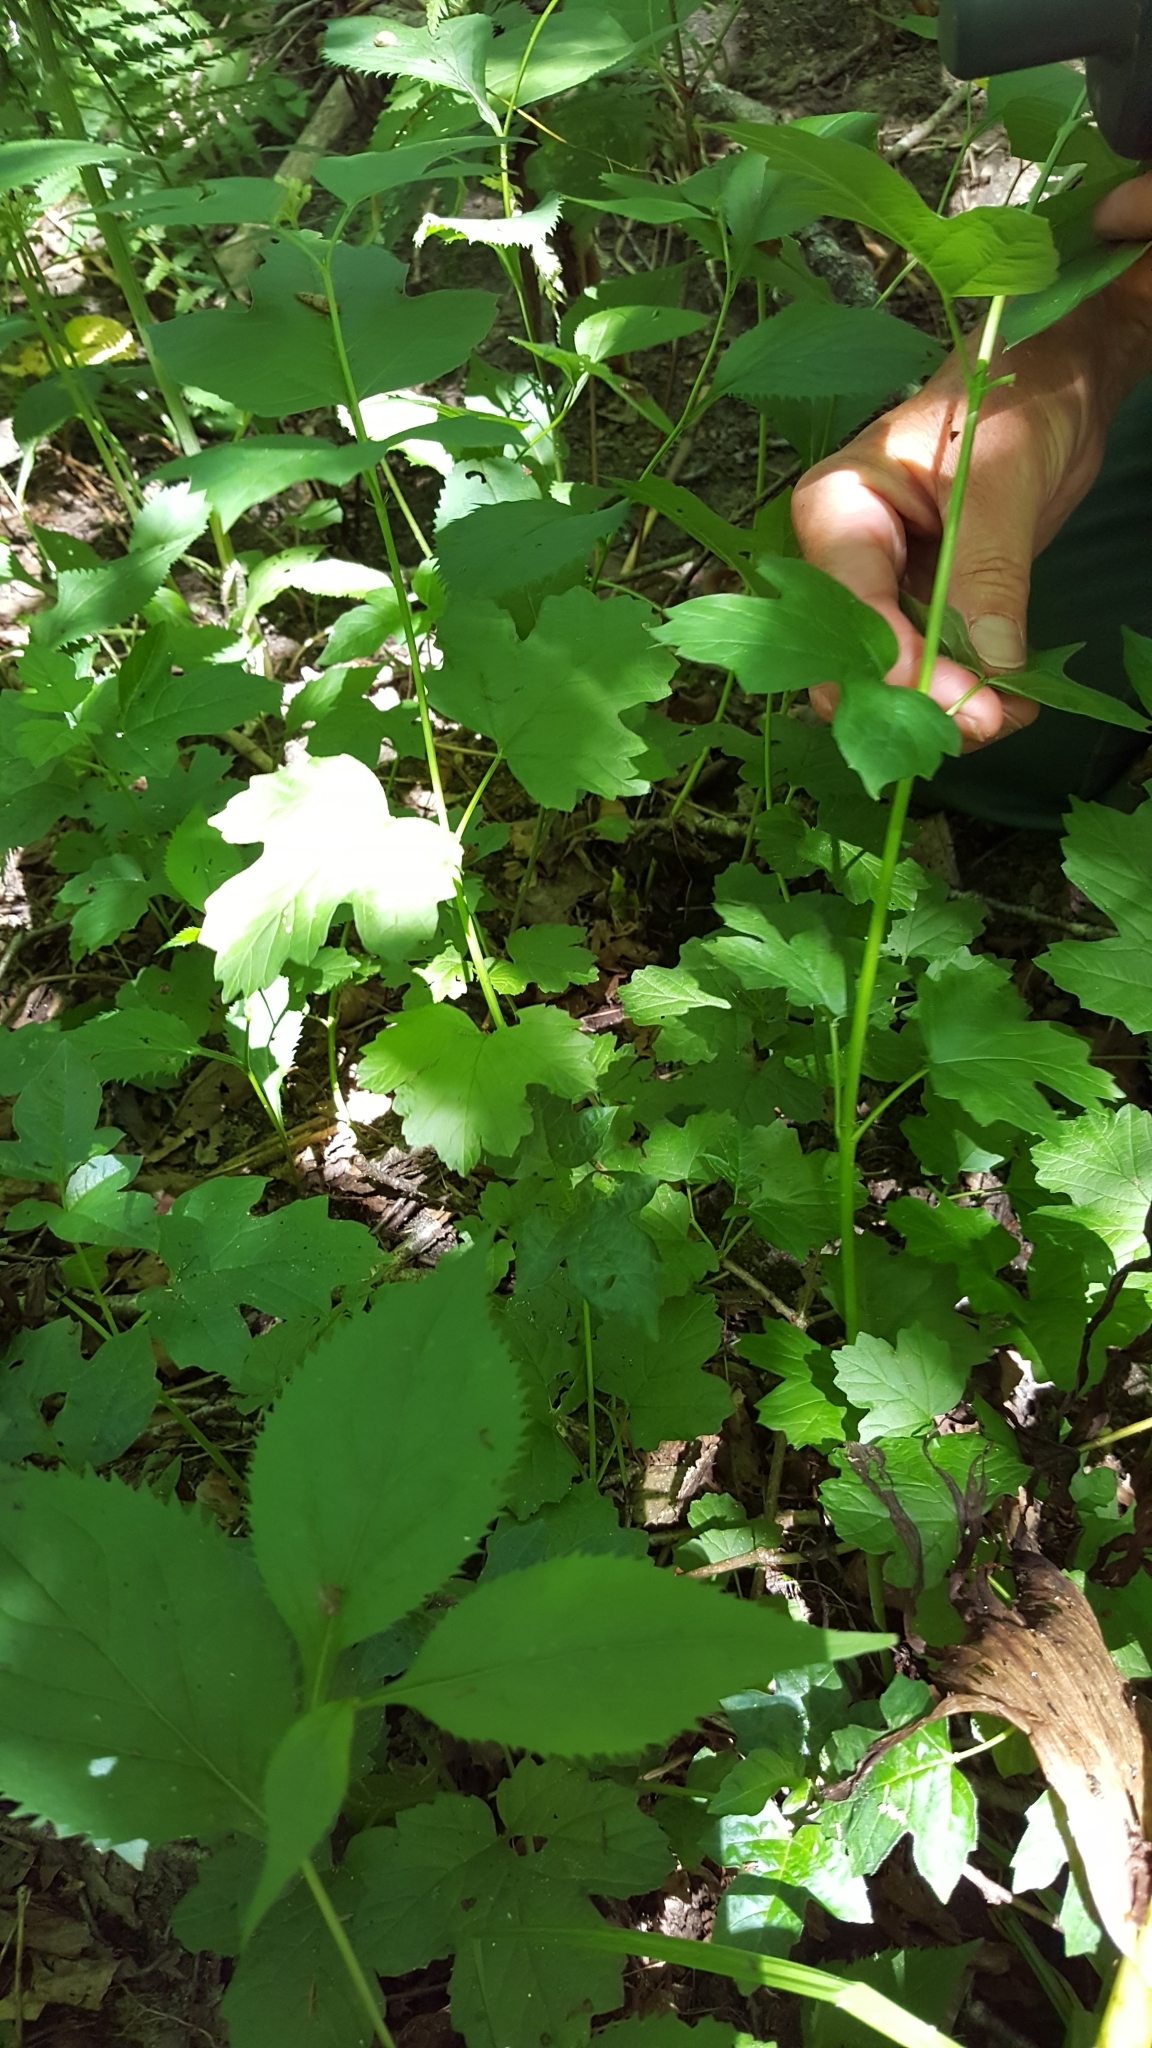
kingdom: Plantae
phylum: Tracheophyta
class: Magnoliopsida
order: Dipsacales
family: Viburnaceae
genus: Viburnum
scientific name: Viburnum opulus
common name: Guelder-rose
